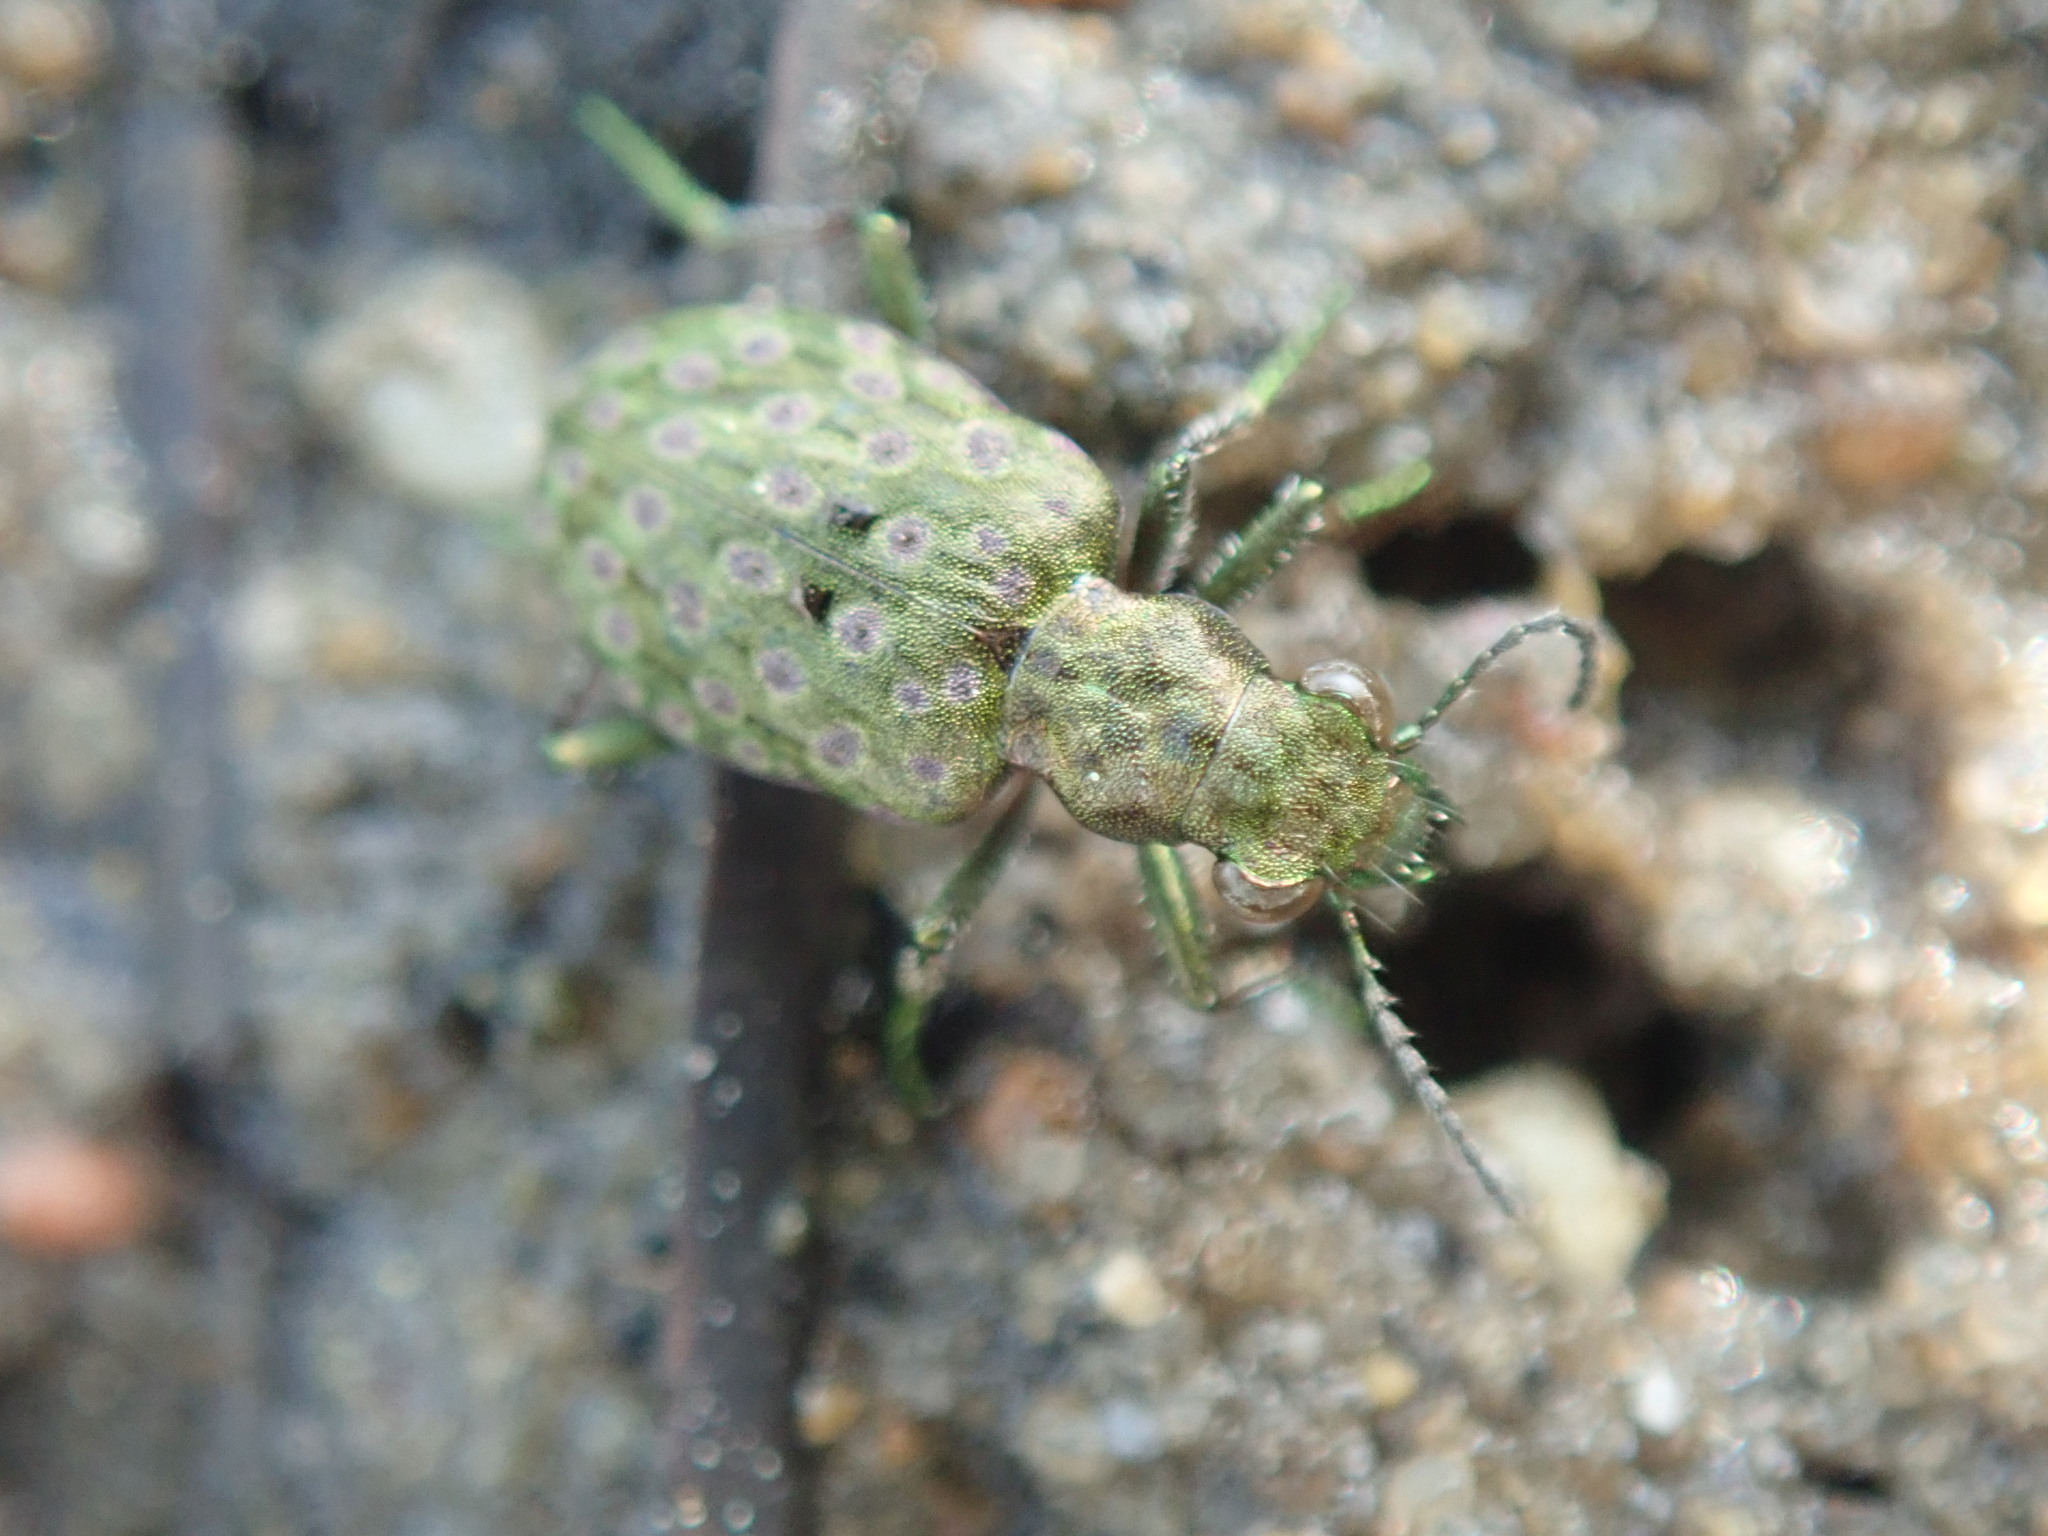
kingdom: Animalia
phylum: Arthropoda
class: Insecta
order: Coleoptera
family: Carabidae
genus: Elaphrus
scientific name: Elaphrus riparius
